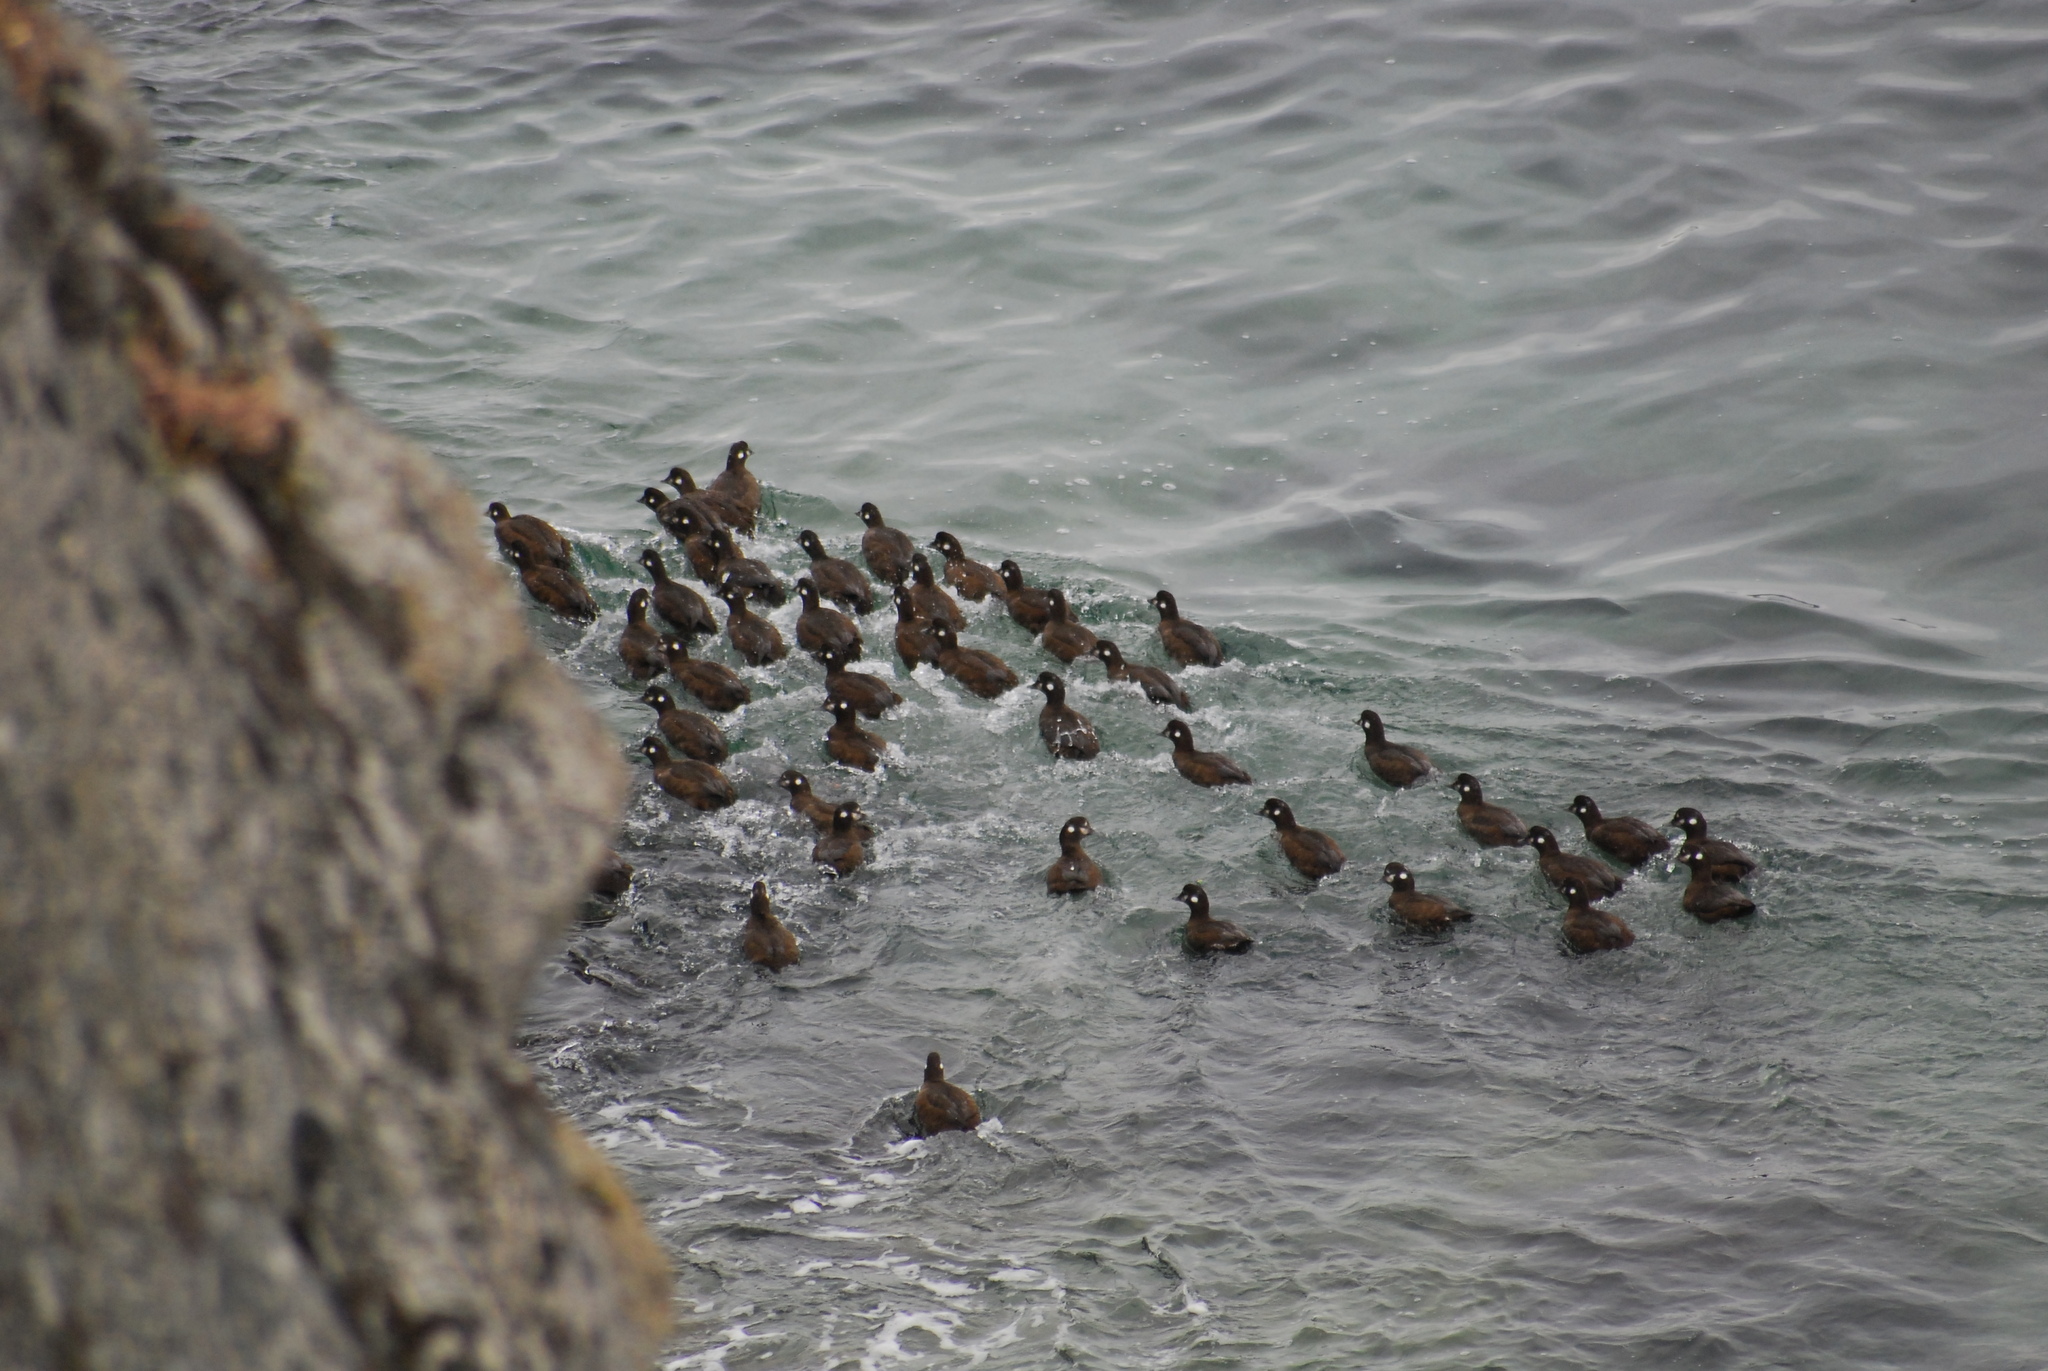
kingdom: Animalia
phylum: Chordata
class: Aves
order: Anseriformes
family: Anatidae
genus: Histrionicus
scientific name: Histrionicus histrionicus
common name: Harlequin duck
